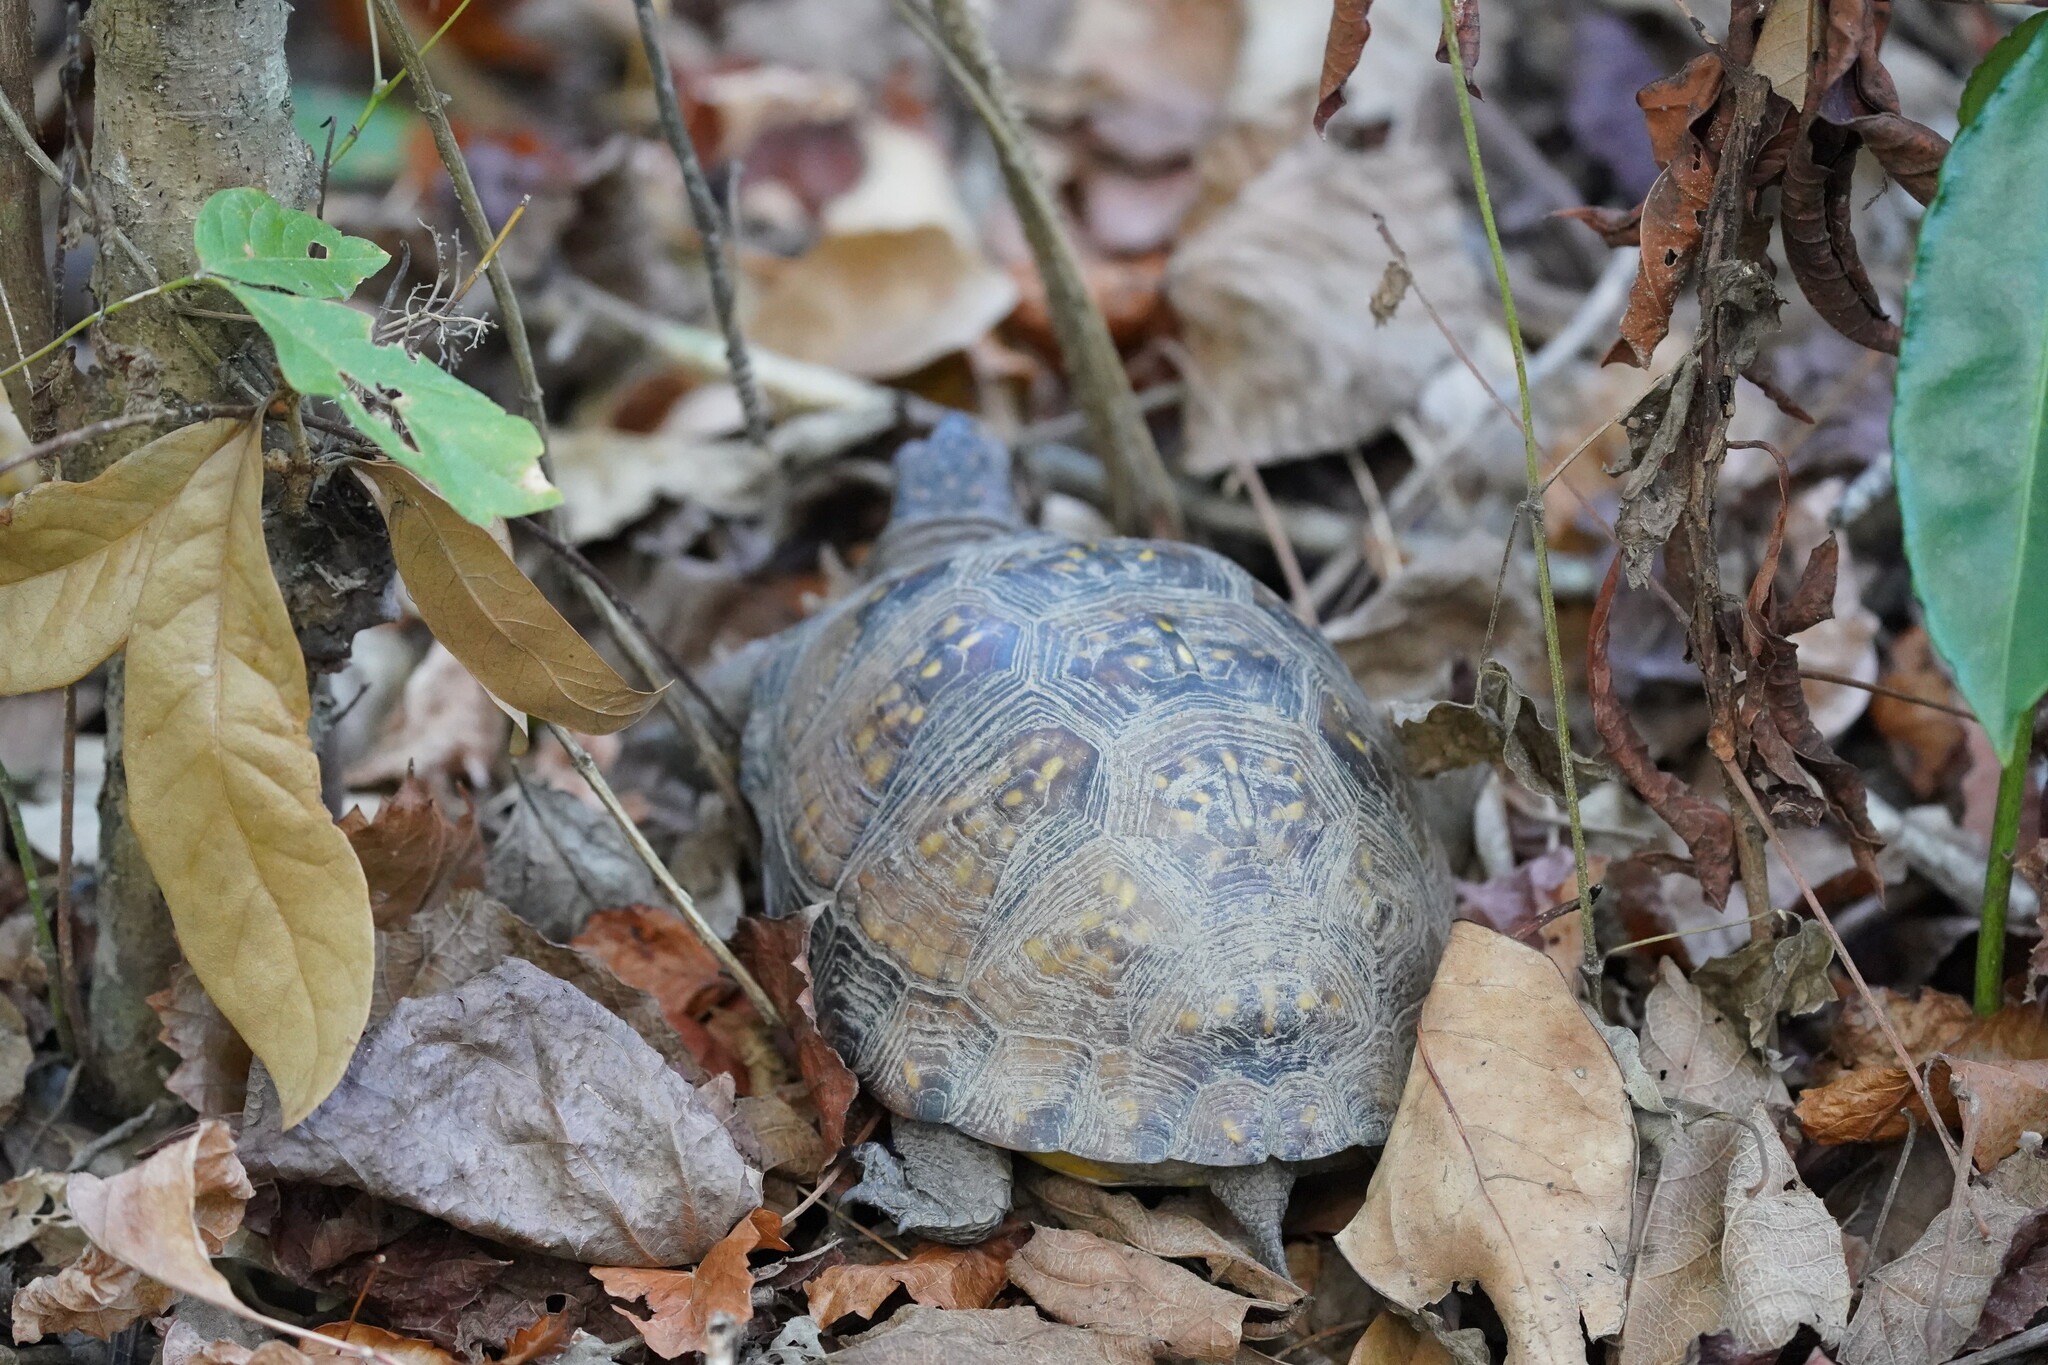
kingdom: Animalia
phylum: Chordata
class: Testudines
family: Emydidae
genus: Terrapene
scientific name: Terrapene carolina
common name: Common box turtle
